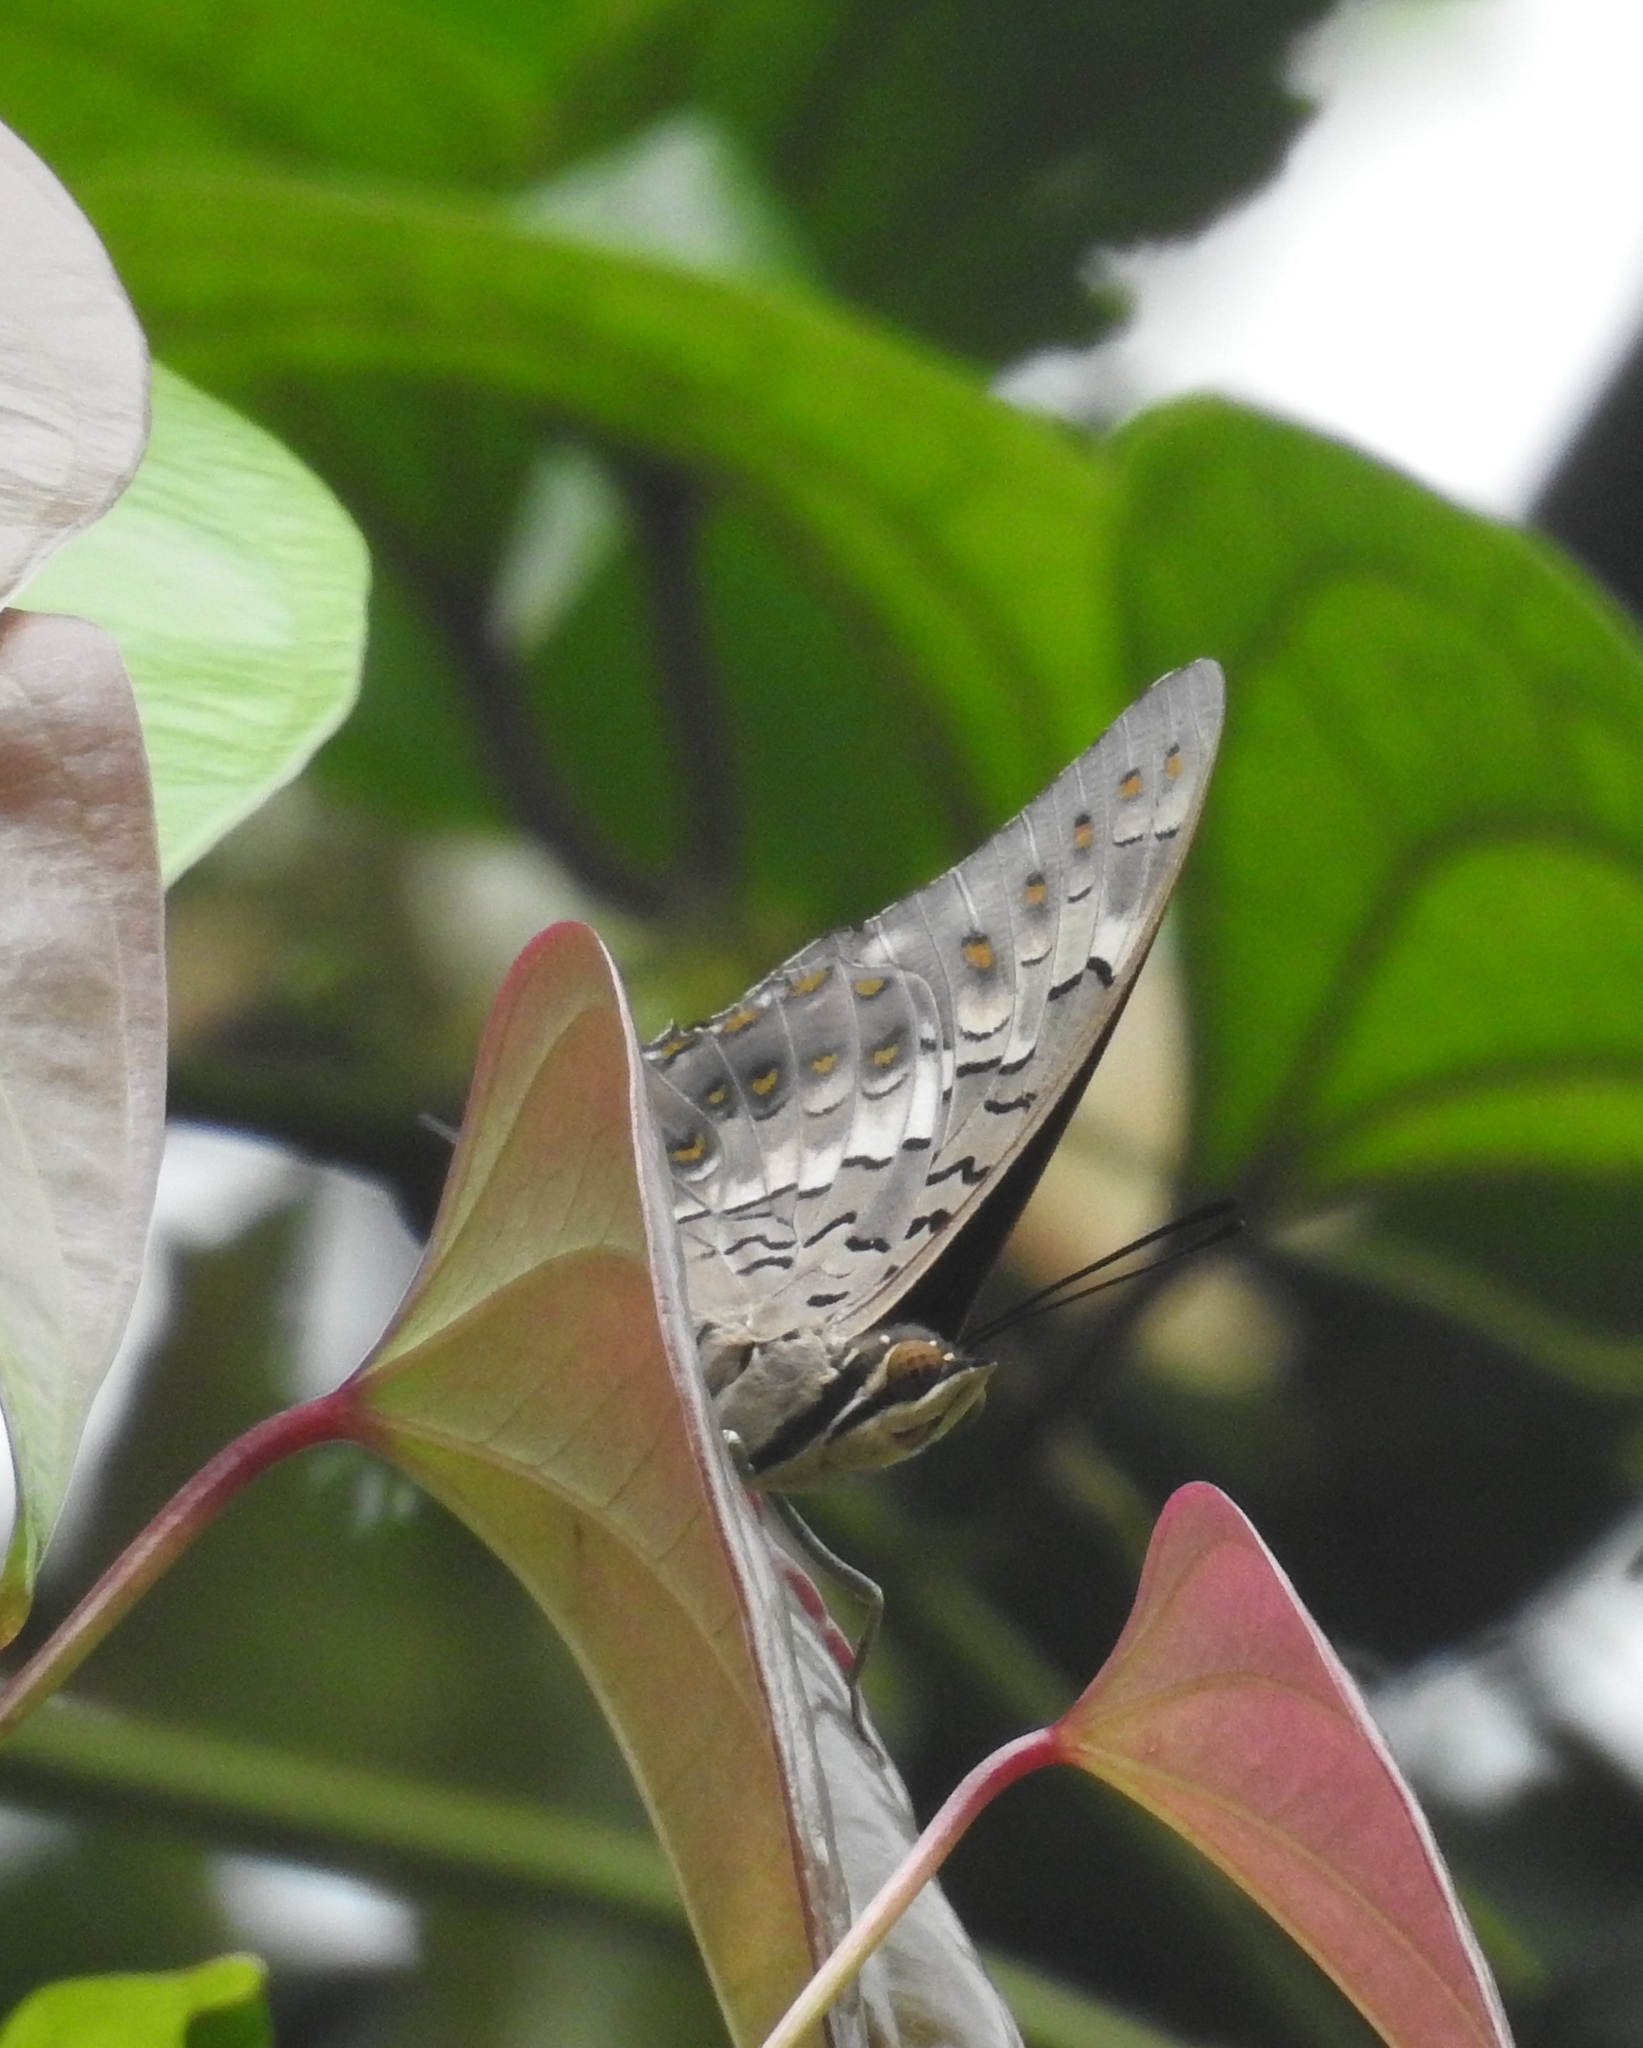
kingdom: Animalia
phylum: Arthropoda
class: Insecta
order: Lepidoptera
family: Nymphalidae
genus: Charaxes
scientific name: Charaxes solon
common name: Black rajah
